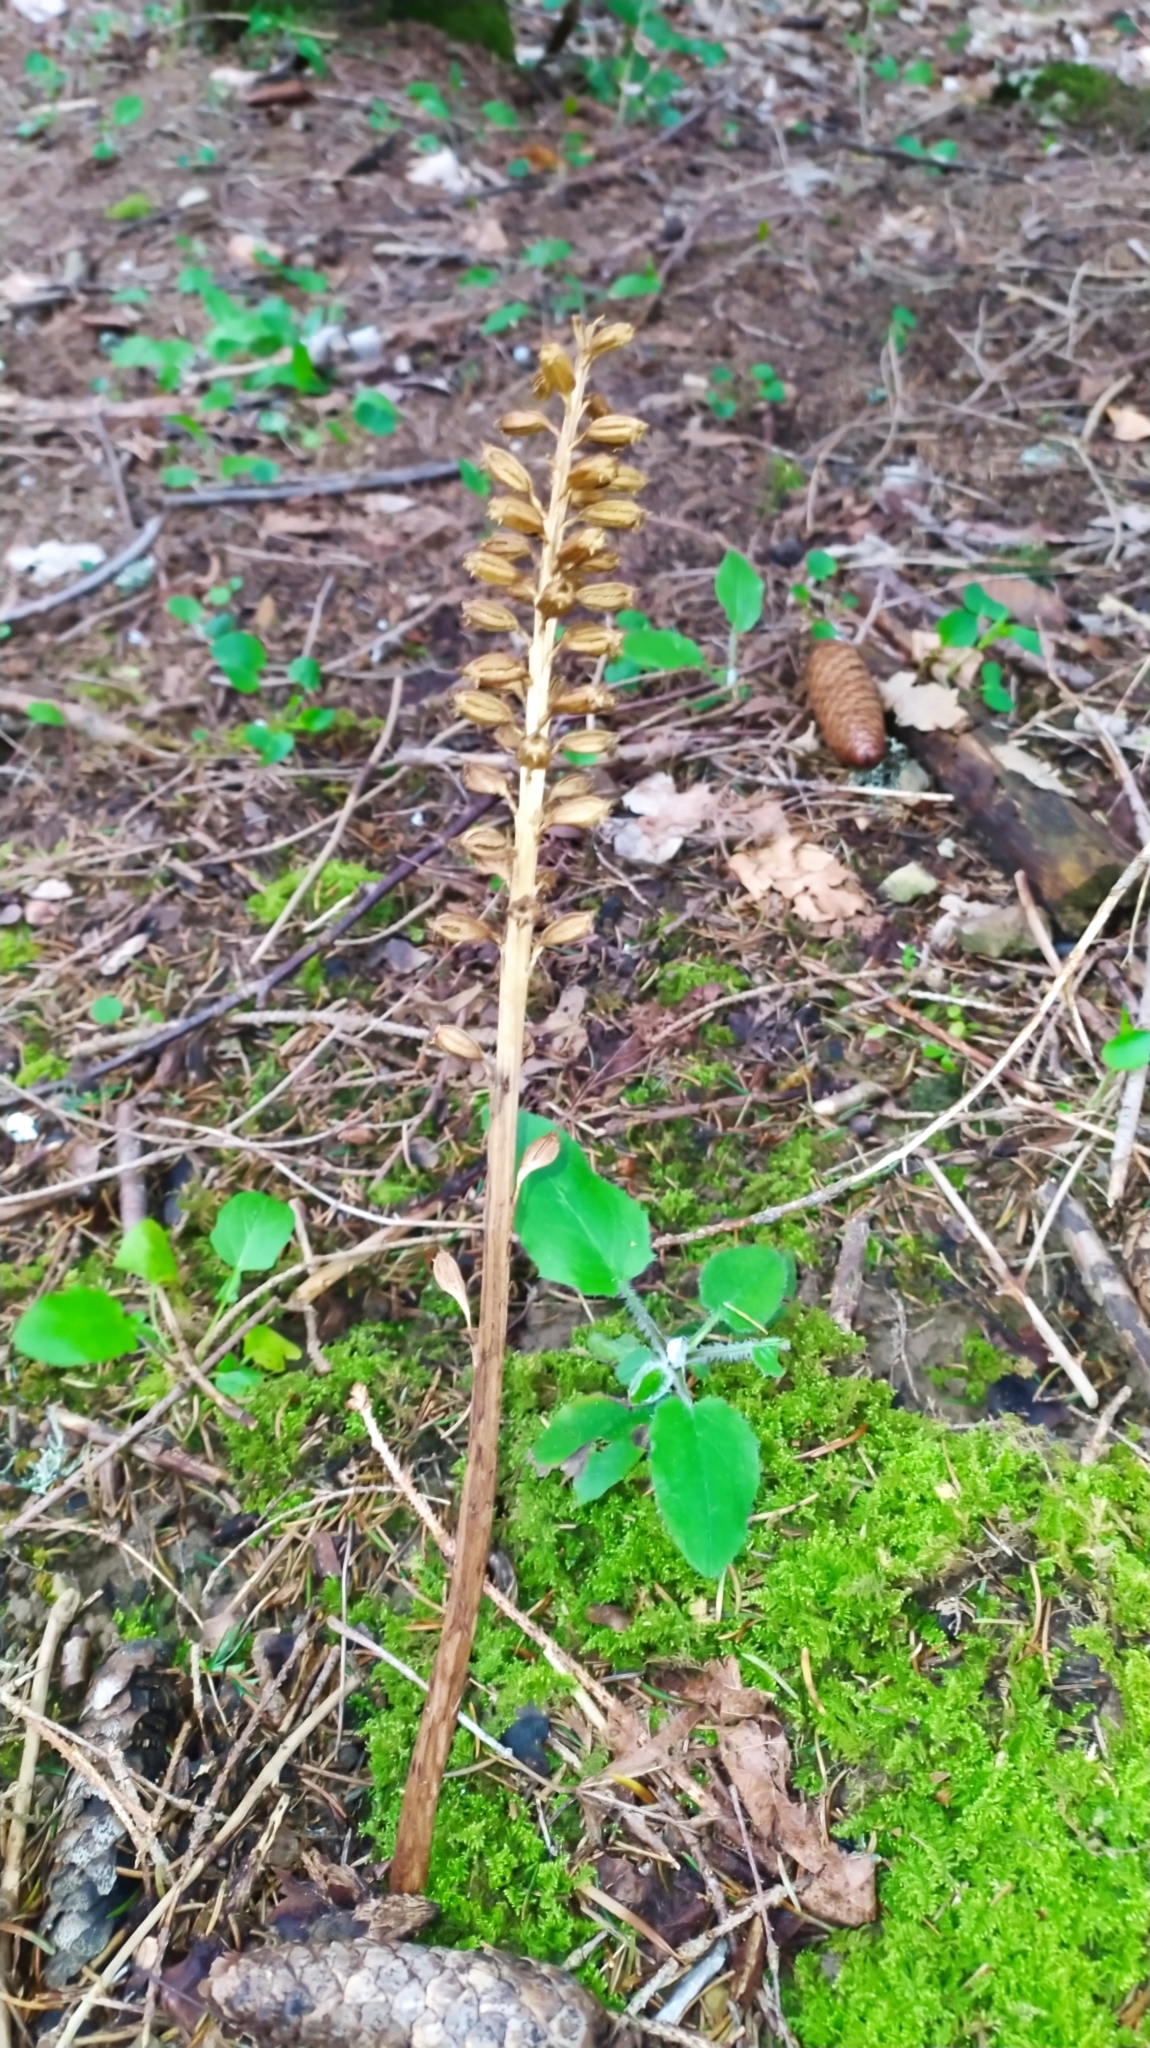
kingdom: Plantae
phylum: Tracheophyta
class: Liliopsida
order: Asparagales
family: Orchidaceae
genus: Neottia
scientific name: Neottia nidus-avis
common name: Bird's-nest orchid
